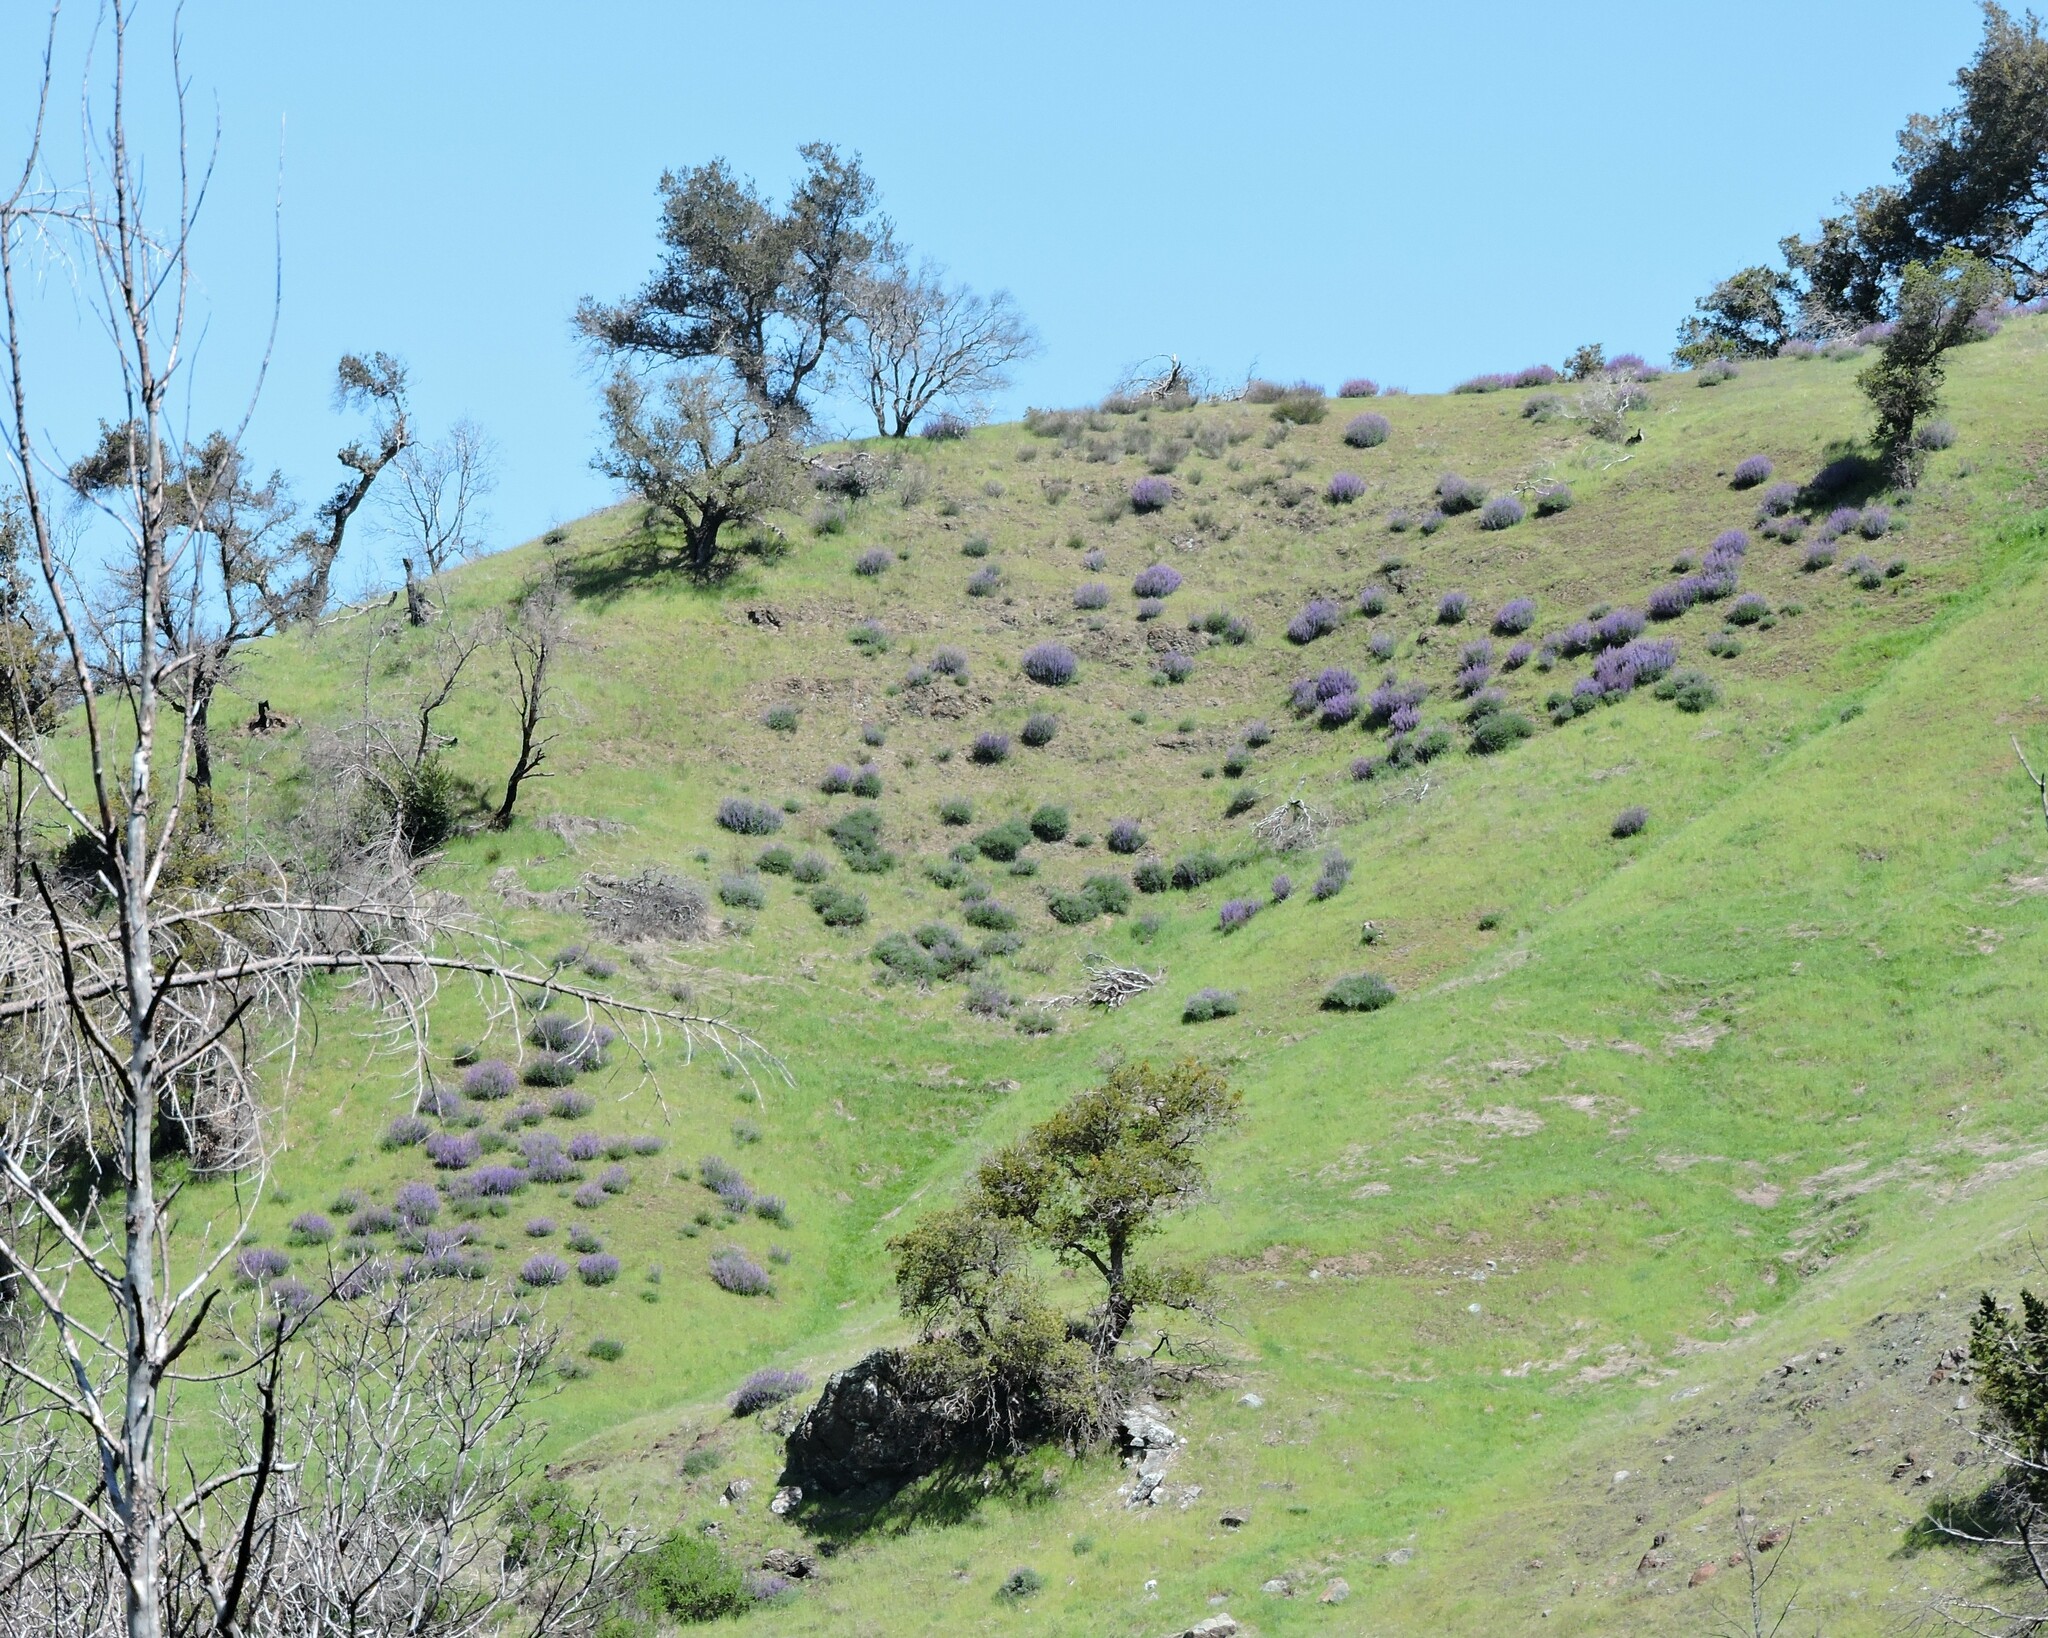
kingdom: Plantae
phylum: Tracheophyta
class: Magnoliopsida
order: Fabales
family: Fabaceae
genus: Lupinus
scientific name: Lupinus albifrons
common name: Foothill lupine
